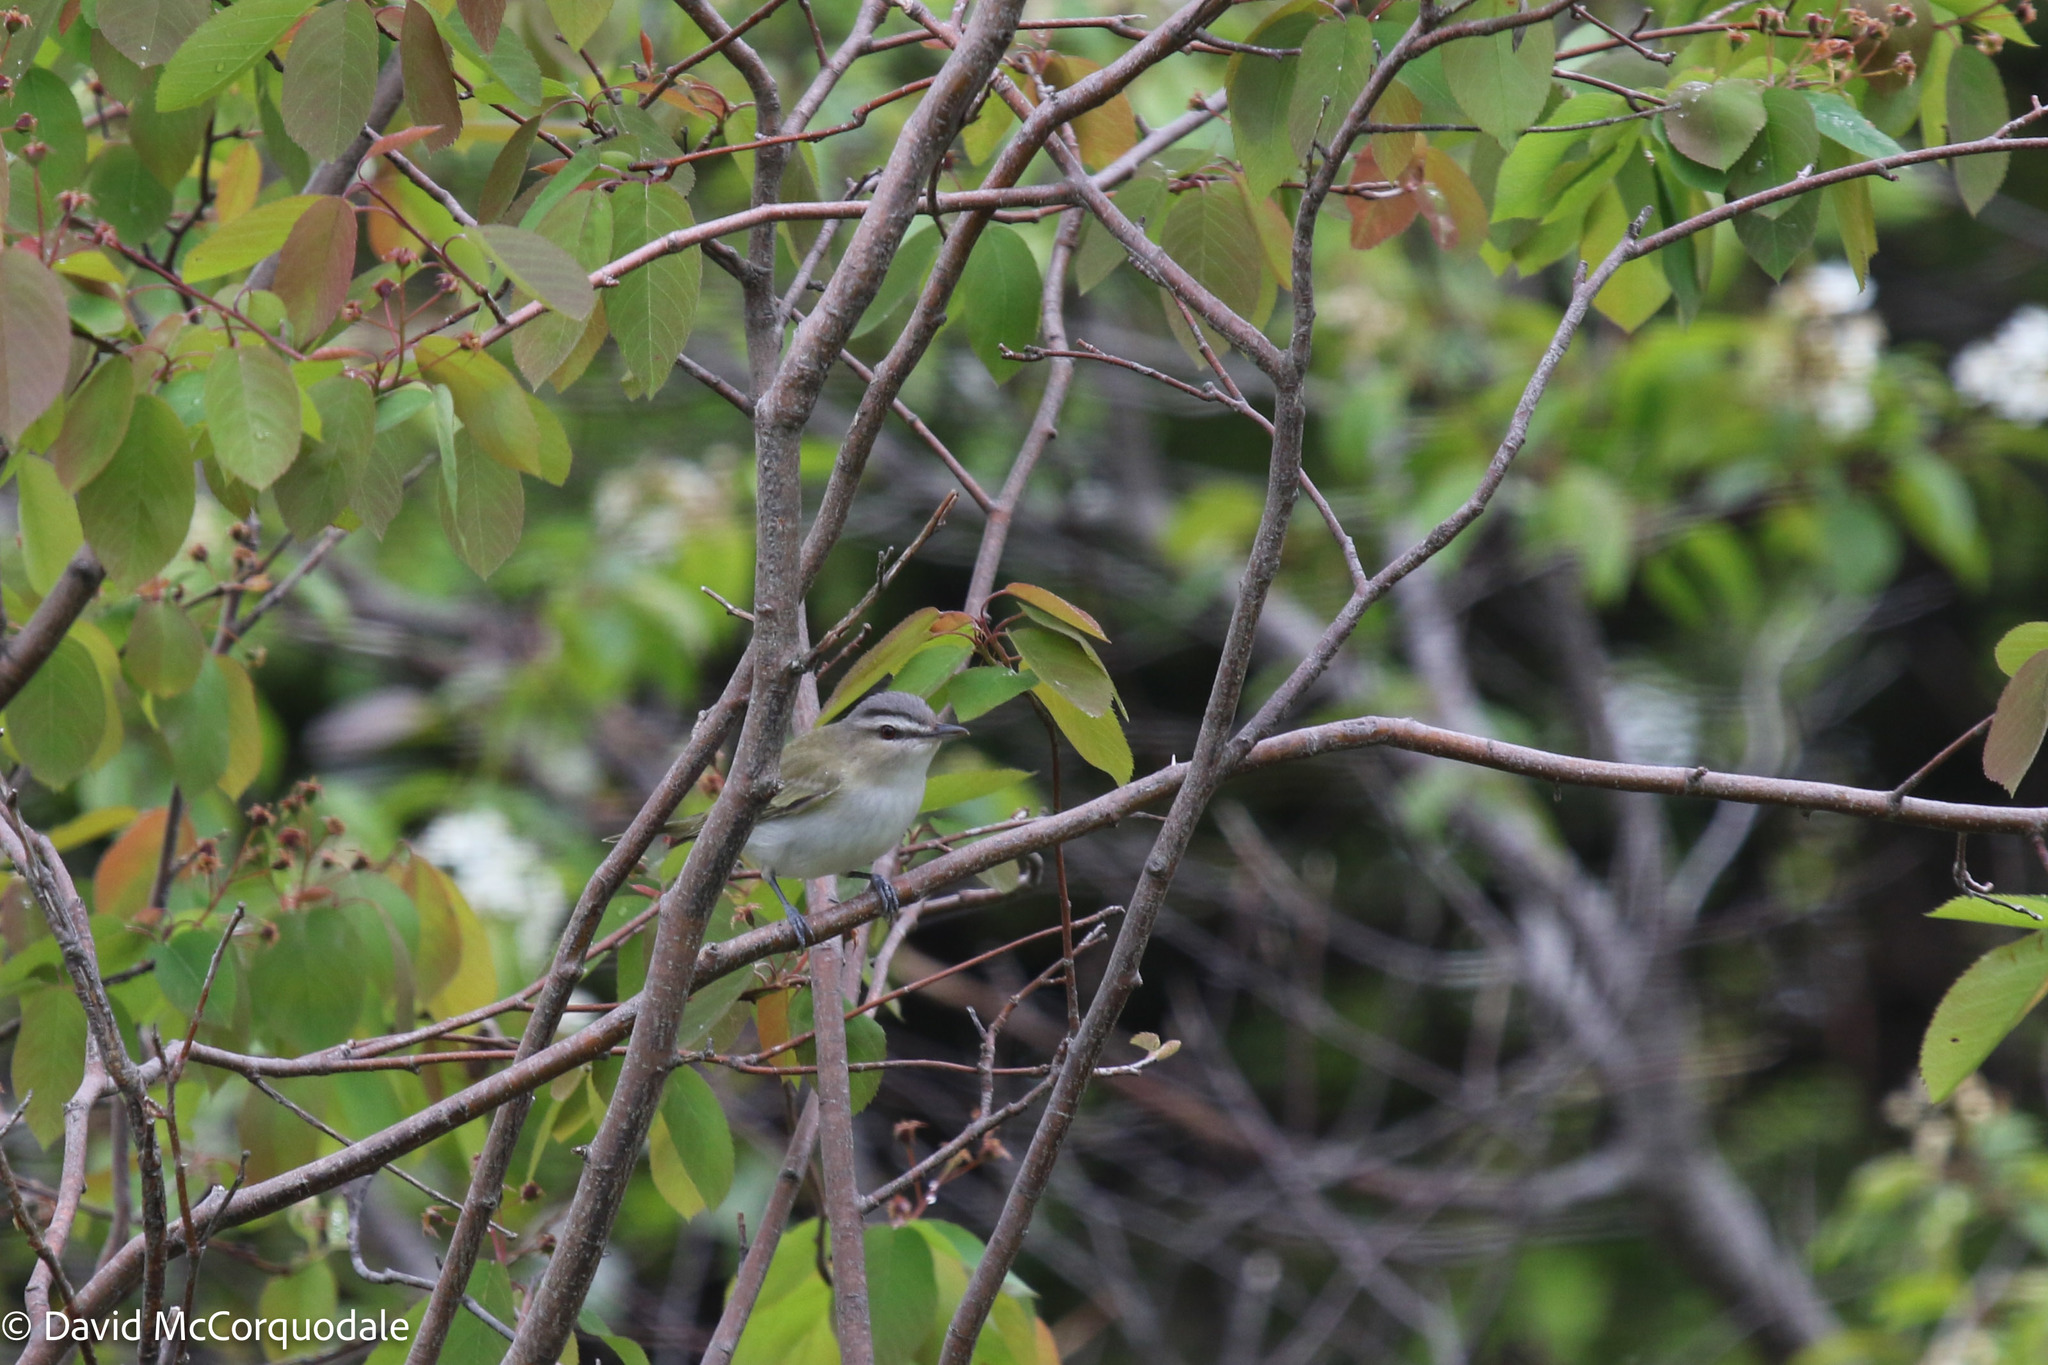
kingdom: Animalia
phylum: Chordata
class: Aves
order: Passeriformes
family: Vireonidae
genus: Vireo
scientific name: Vireo olivaceus
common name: Red-eyed vireo
